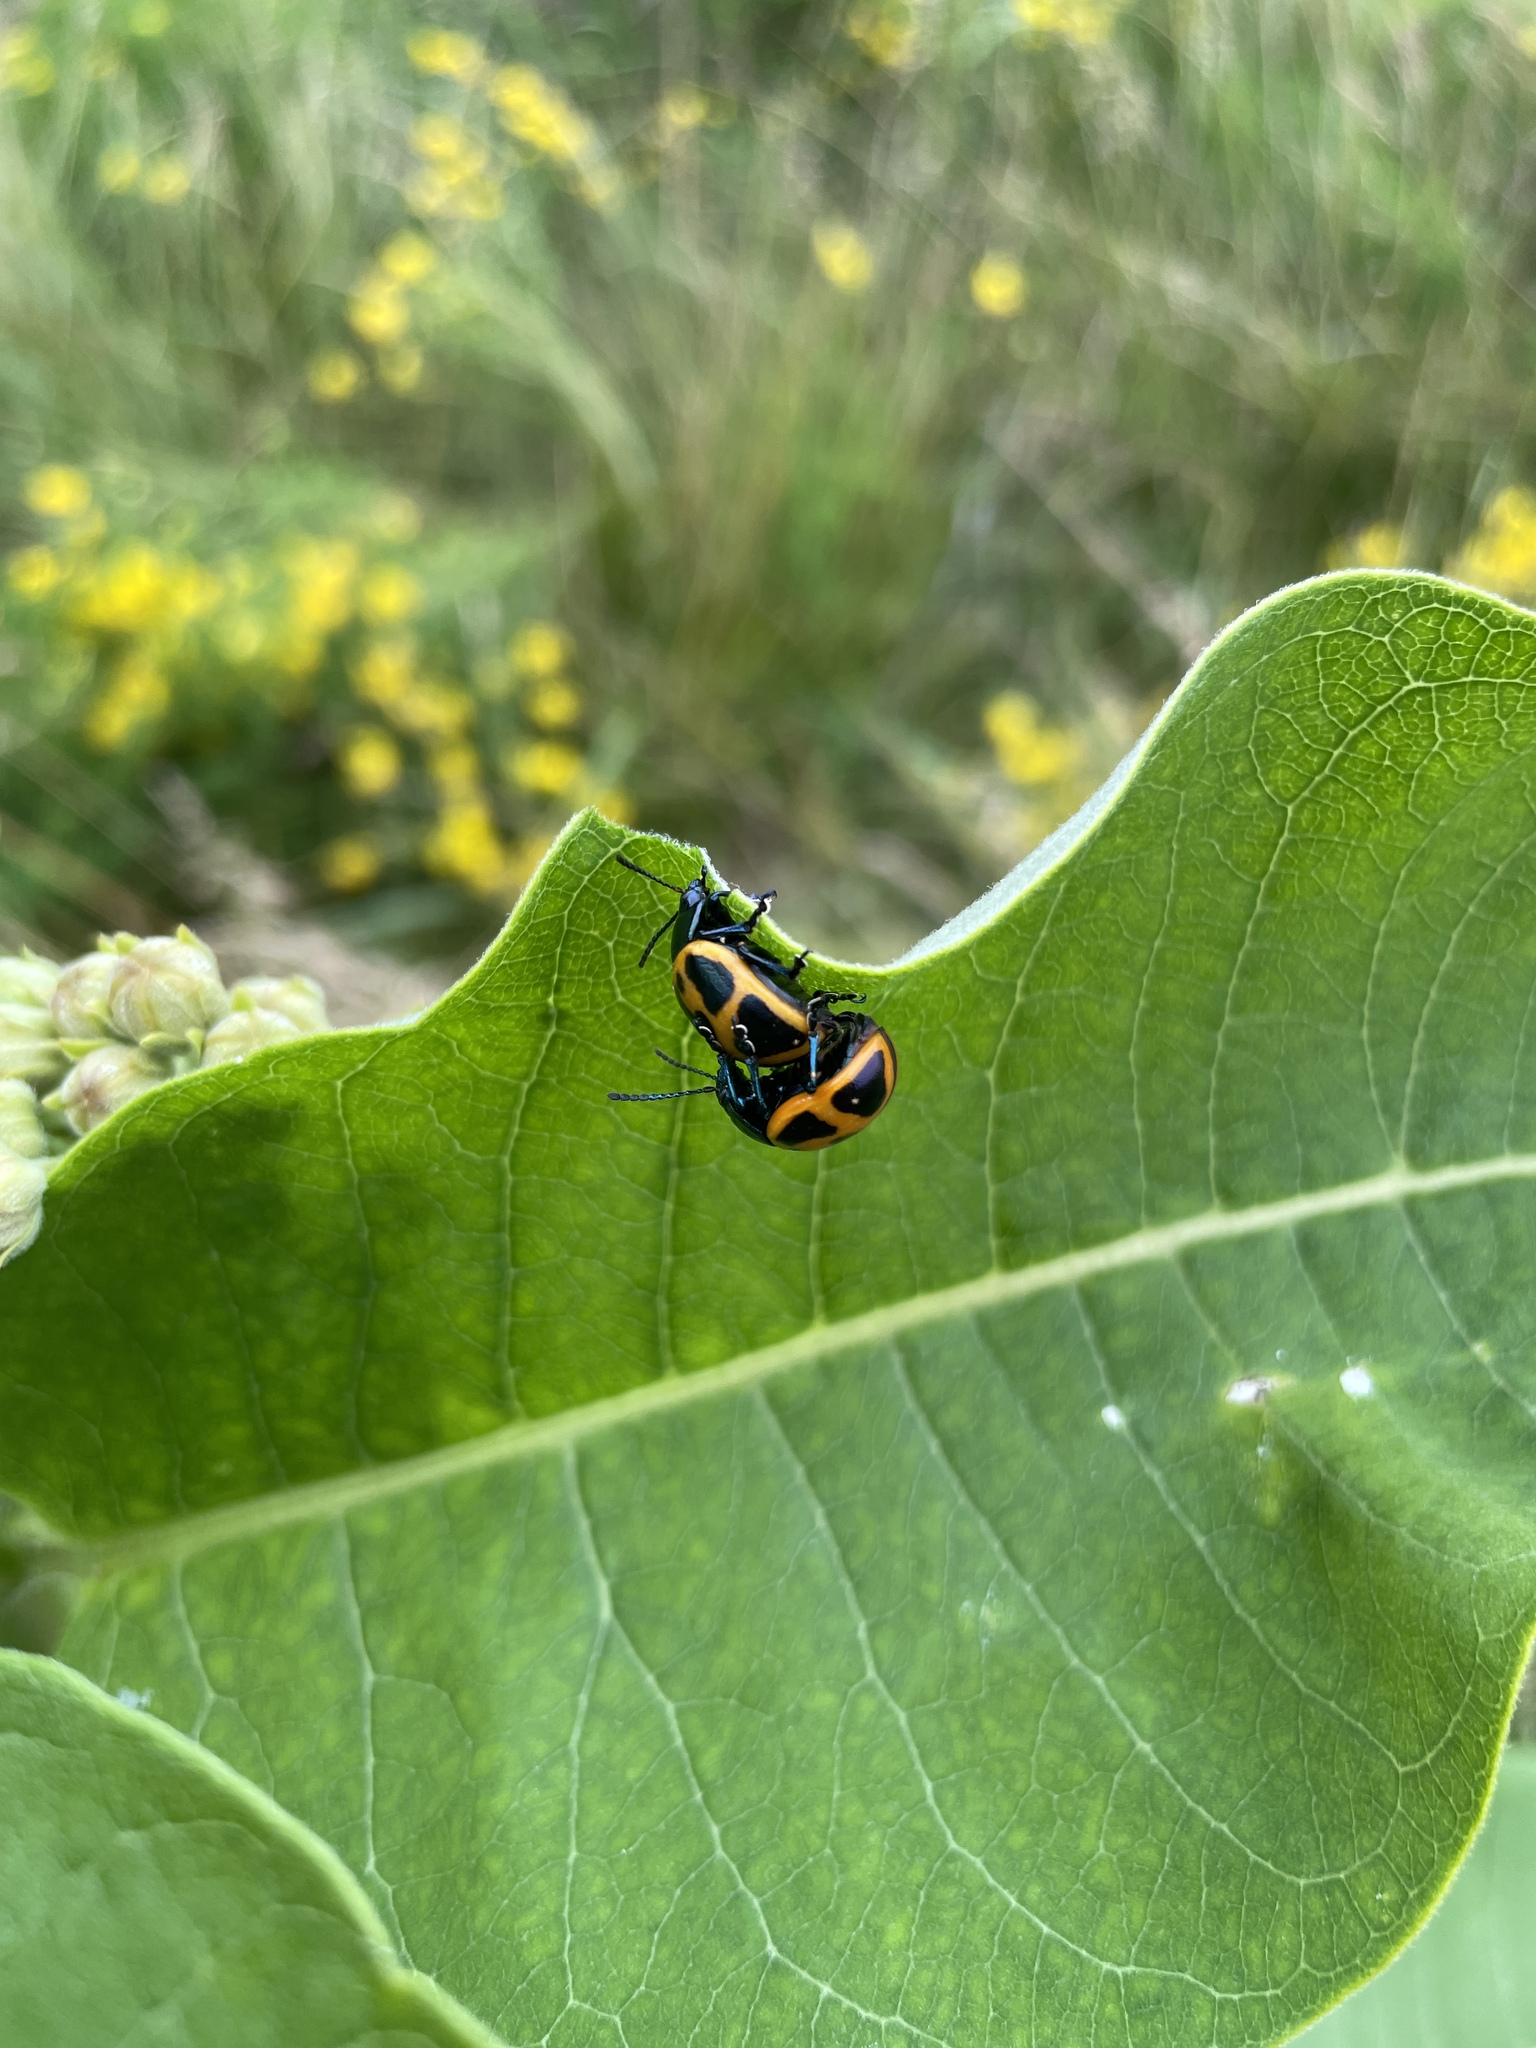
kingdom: Animalia
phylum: Arthropoda
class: Insecta
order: Coleoptera
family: Chrysomelidae
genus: Labidomera
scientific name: Labidomera clivicollis
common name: Swamp milkweed leaf beetle
